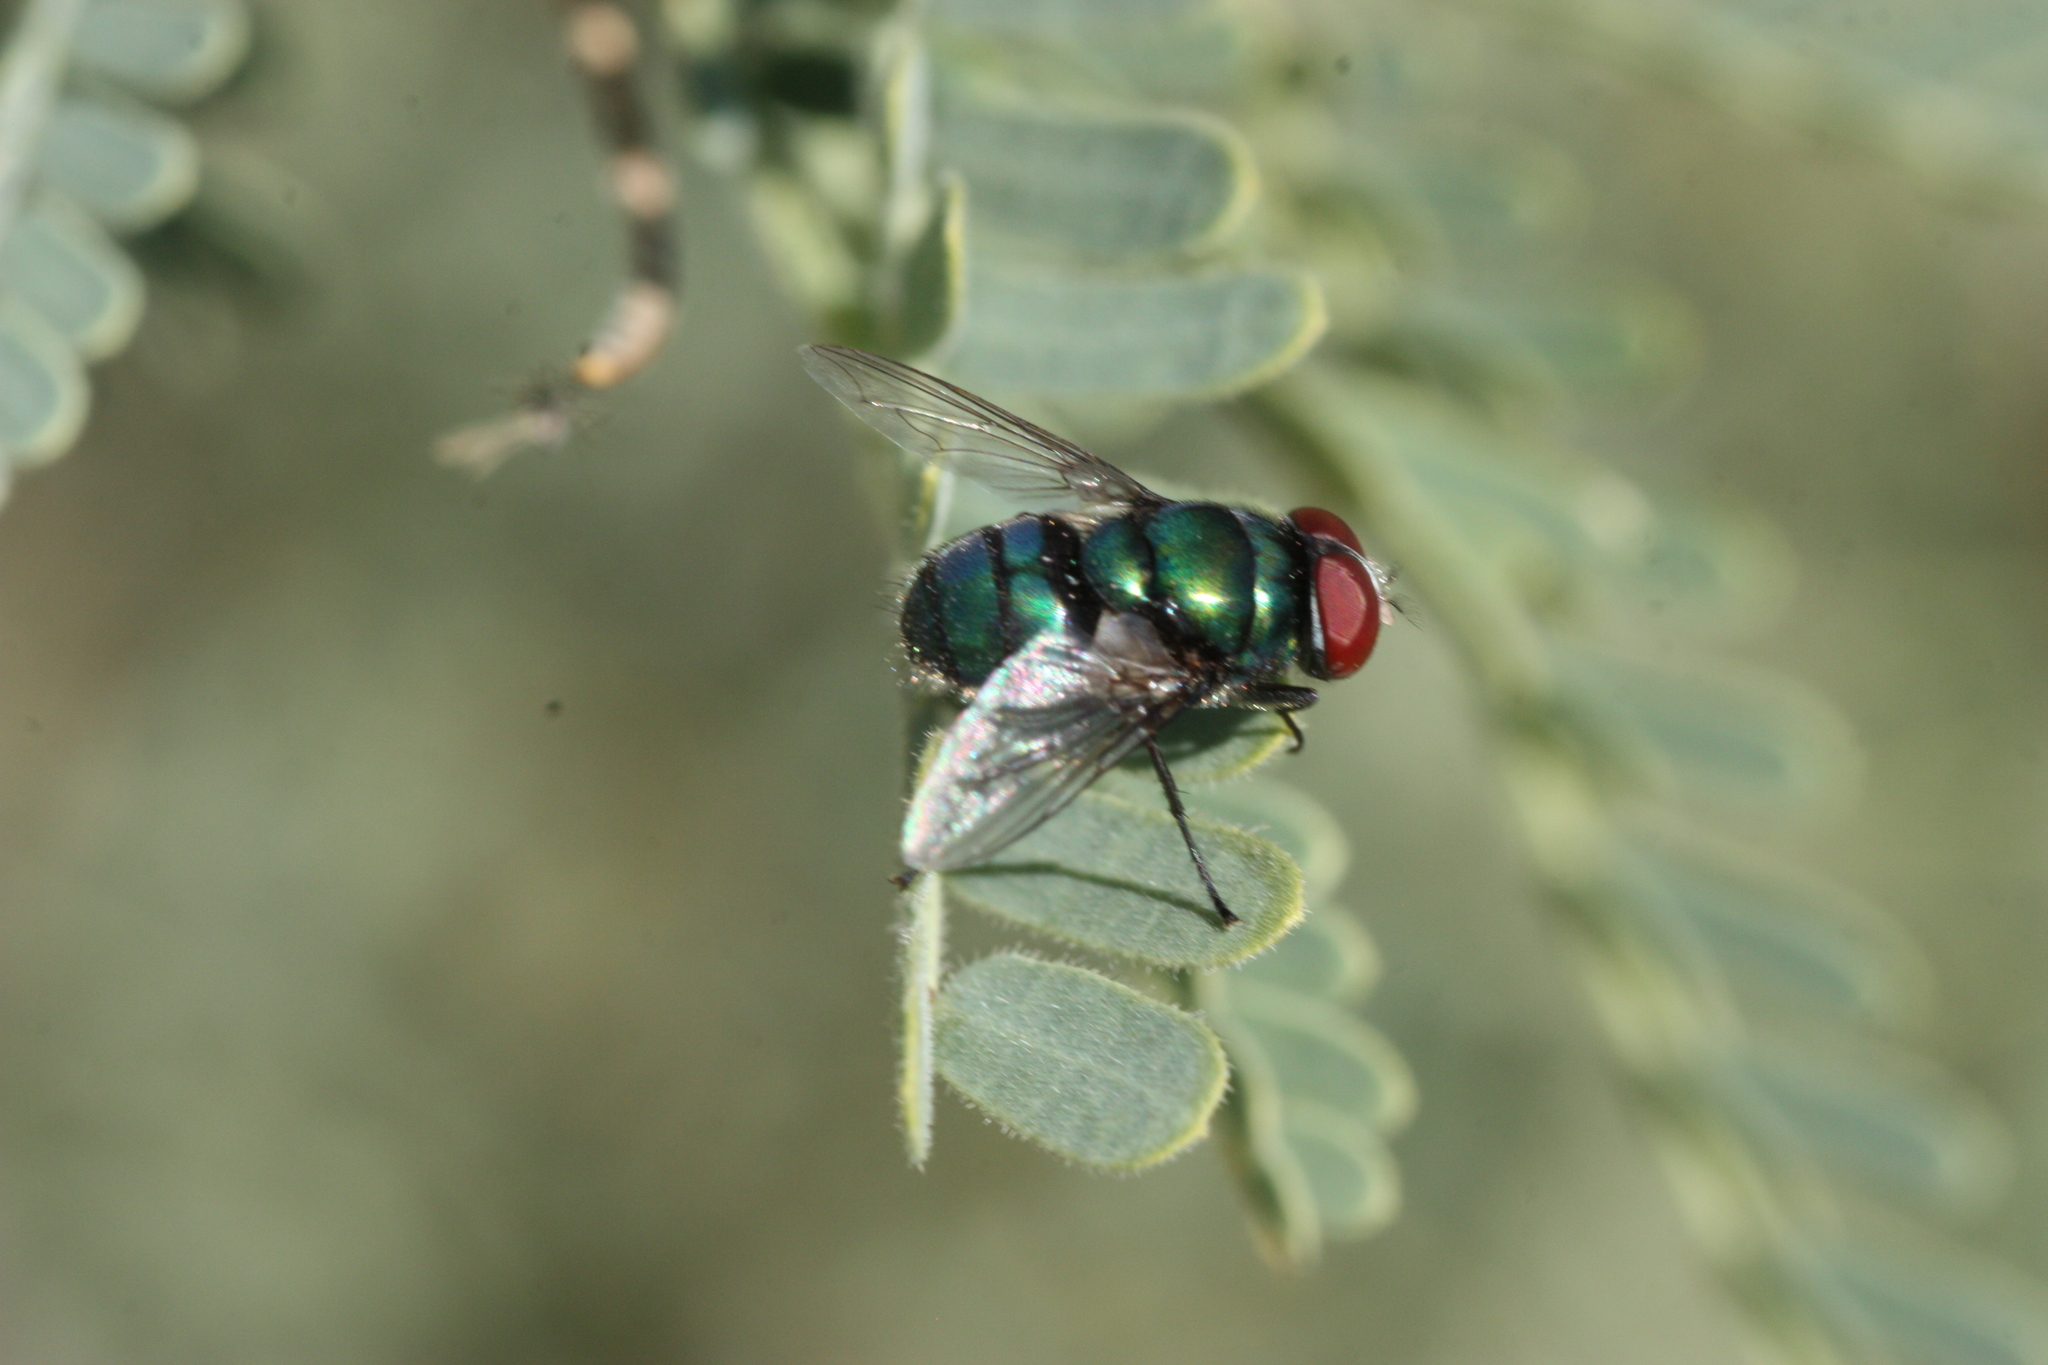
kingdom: Animalia
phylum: Arthropoda
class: Insecta
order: Diptera
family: Calliphoridae
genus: Chrysomya
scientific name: Chrysomya rufifacies
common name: Blow fly
